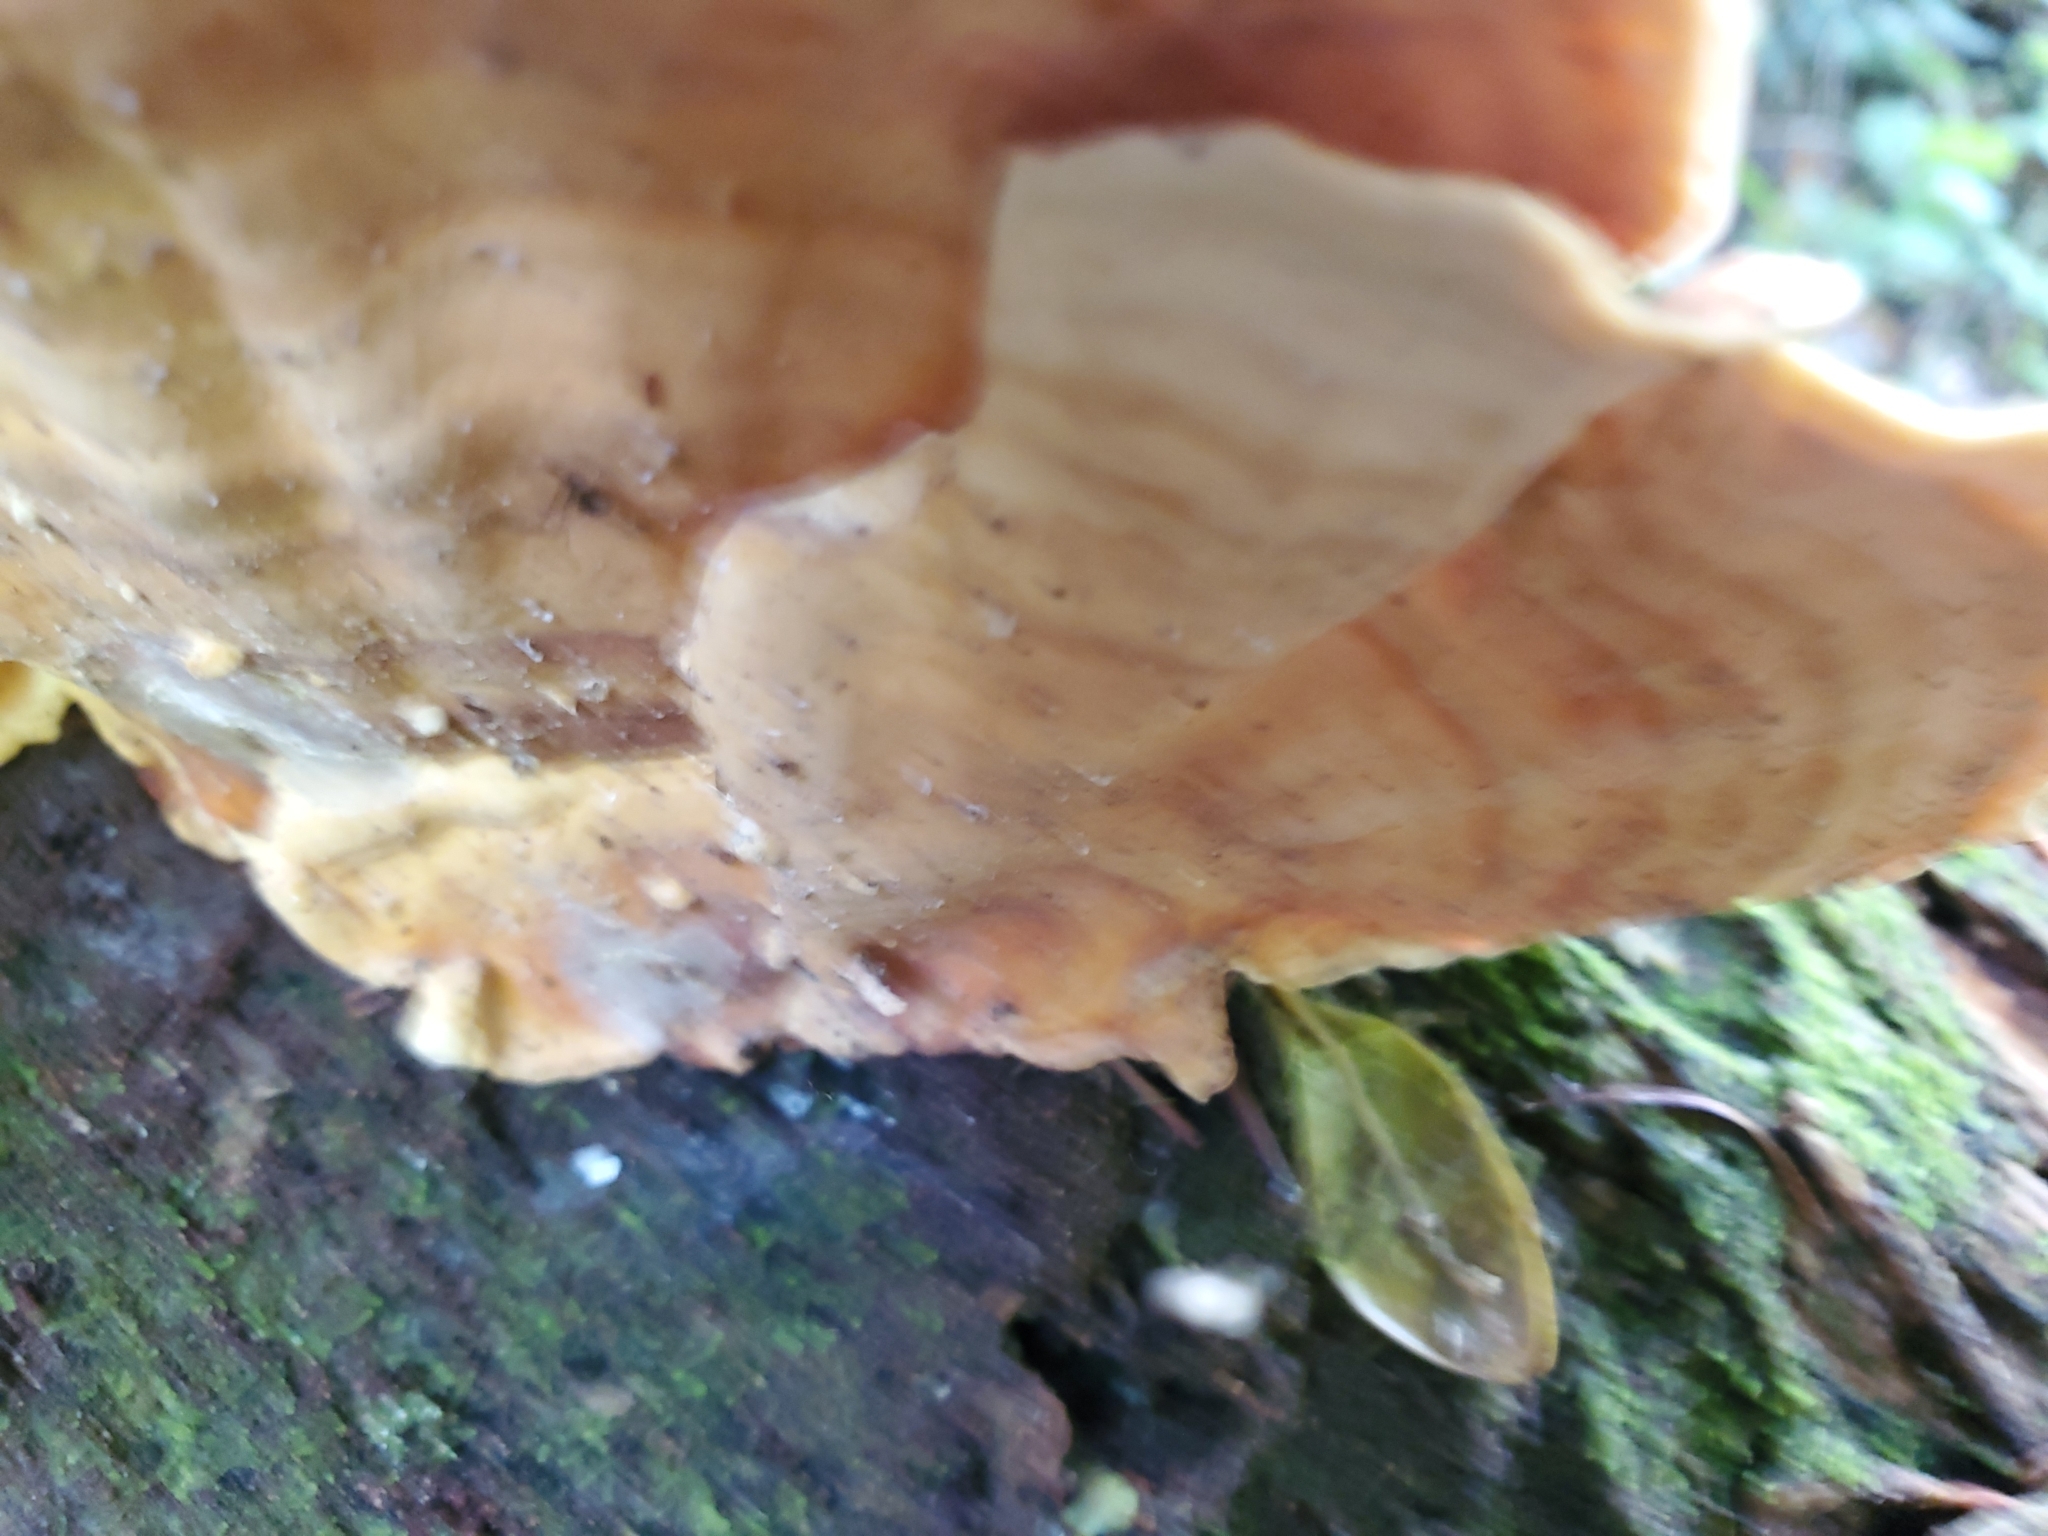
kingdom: Fungi
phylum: Basidiomycota
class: Agaricomycetes
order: Russulales
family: Stereaceae
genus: Stereum
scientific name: Stereum versicolor
